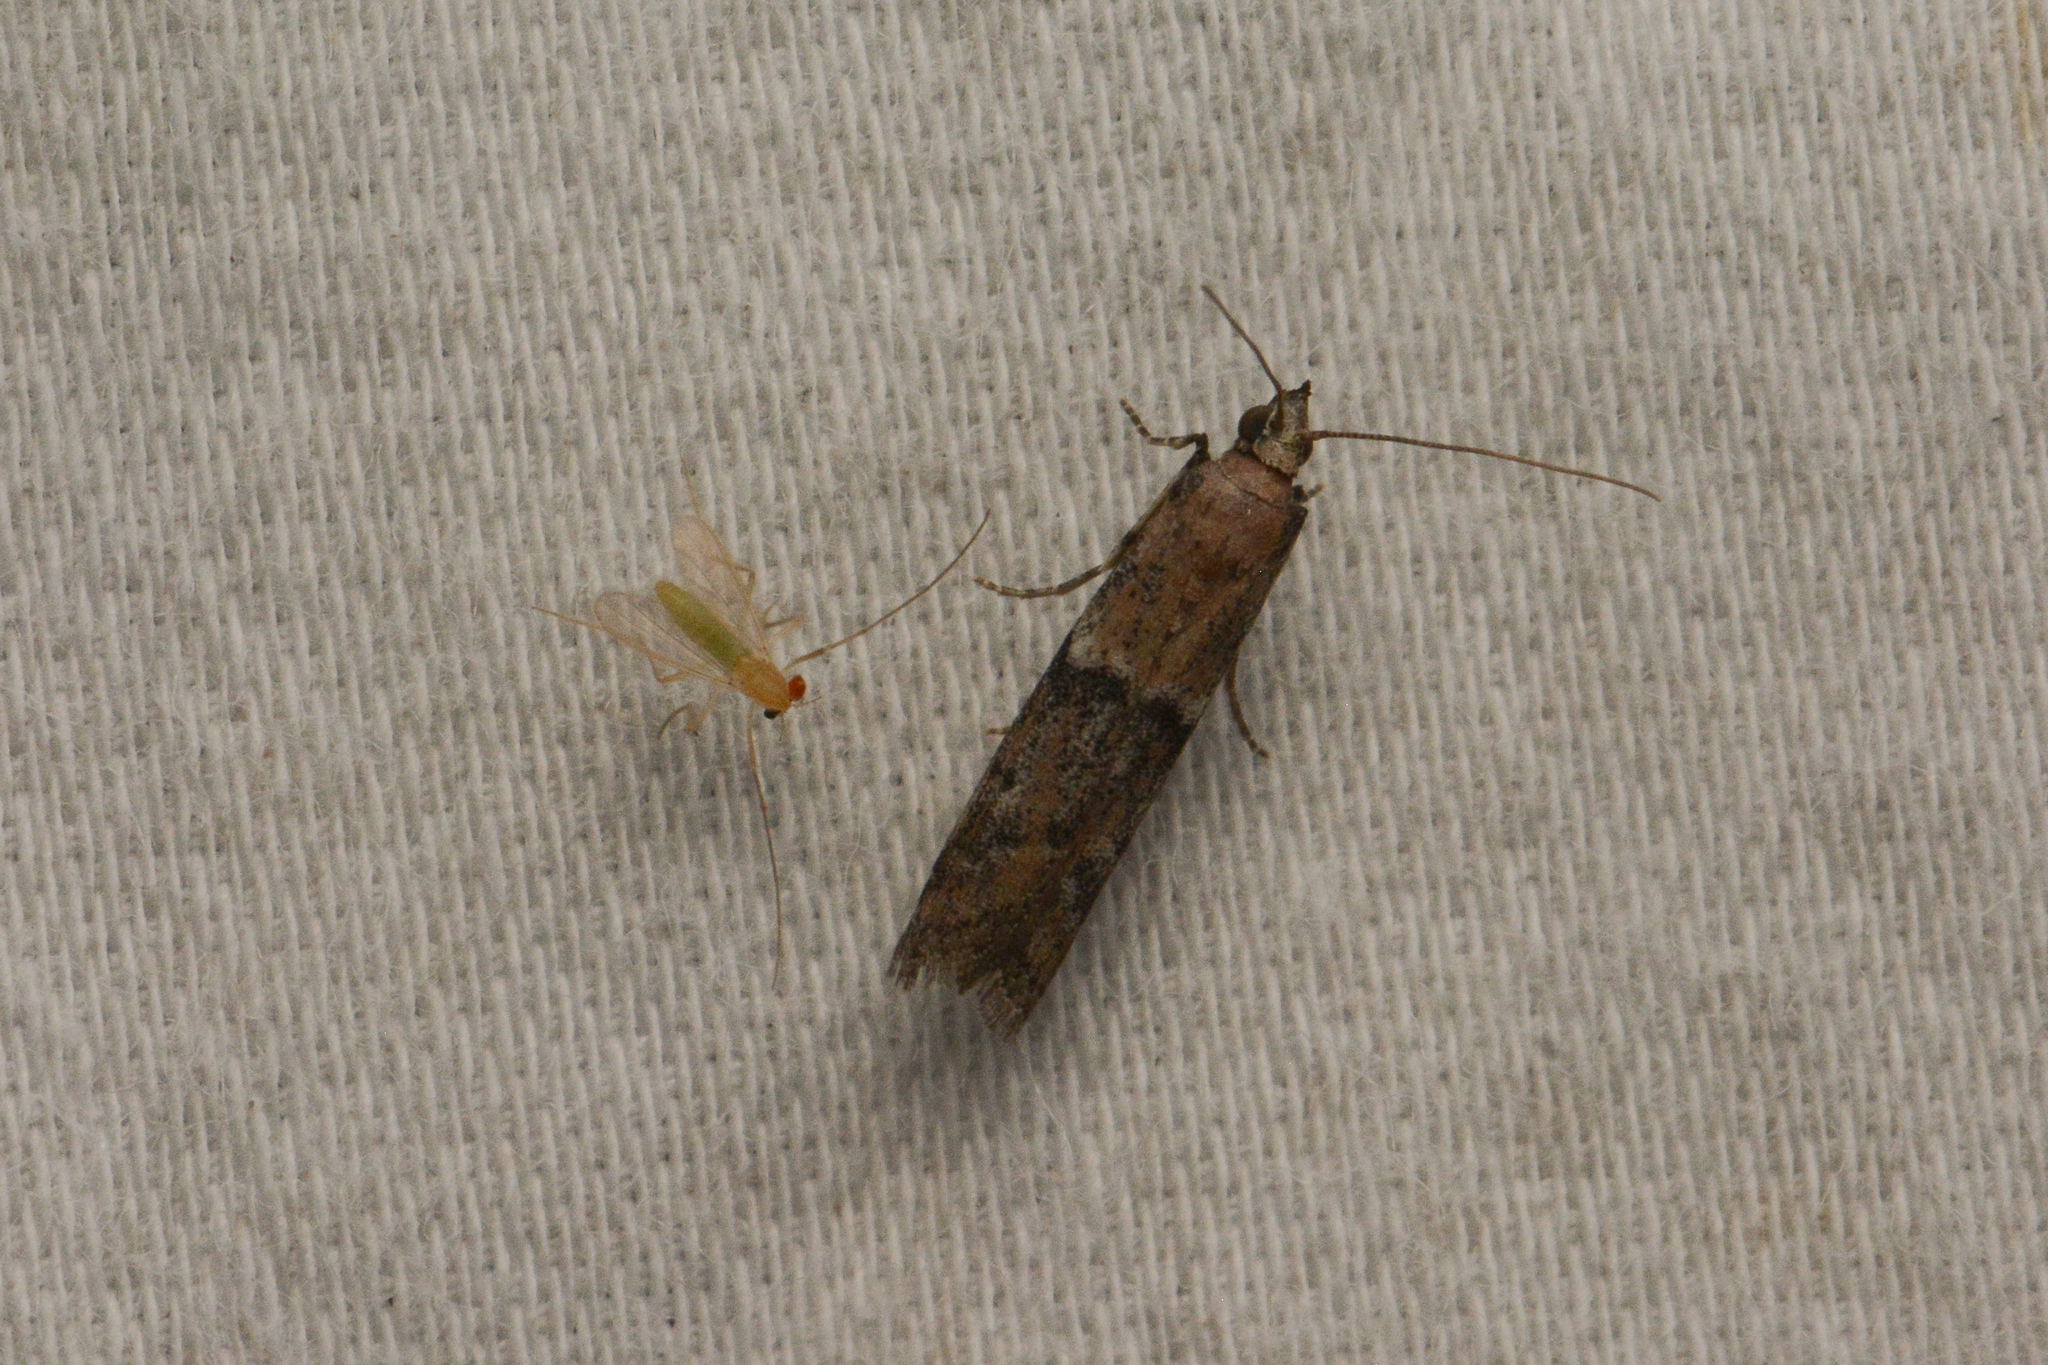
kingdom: Animalia
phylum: Arthropoda
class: Insecta
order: Lepidoptera
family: Pyralidae
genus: Ephestiodes
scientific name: Ephestiodes gilvescentella
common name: Moth
